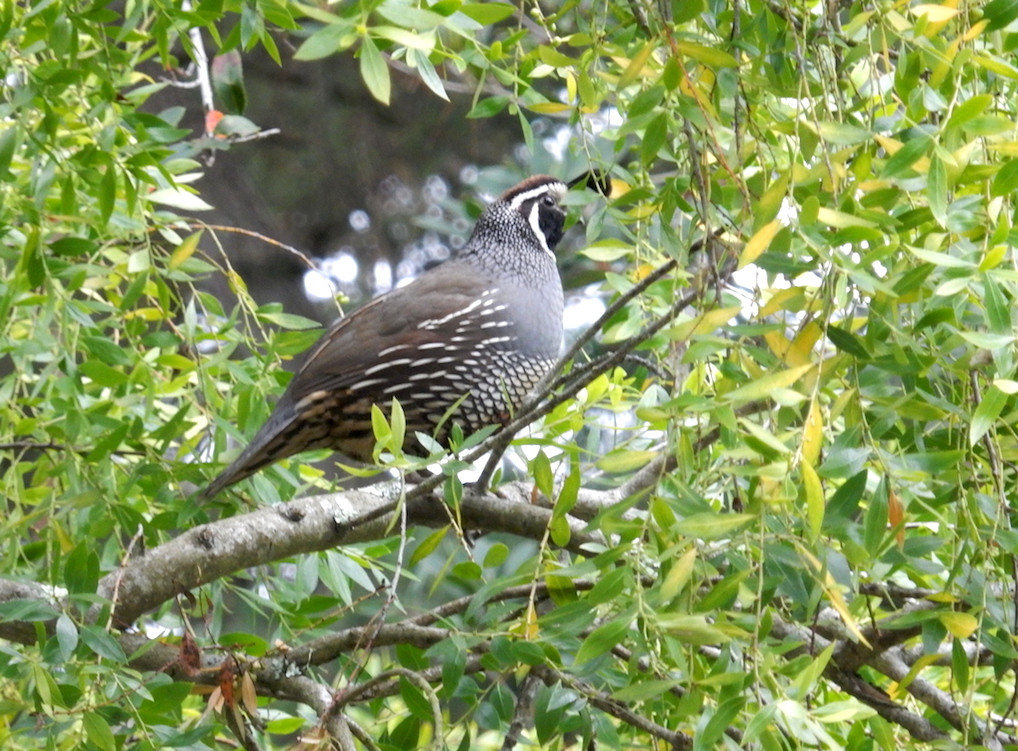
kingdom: Animalia
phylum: Chordata
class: Aves
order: Galliformes
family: Odontophoridae
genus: Callipepla
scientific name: Callipepla californica
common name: California quail
